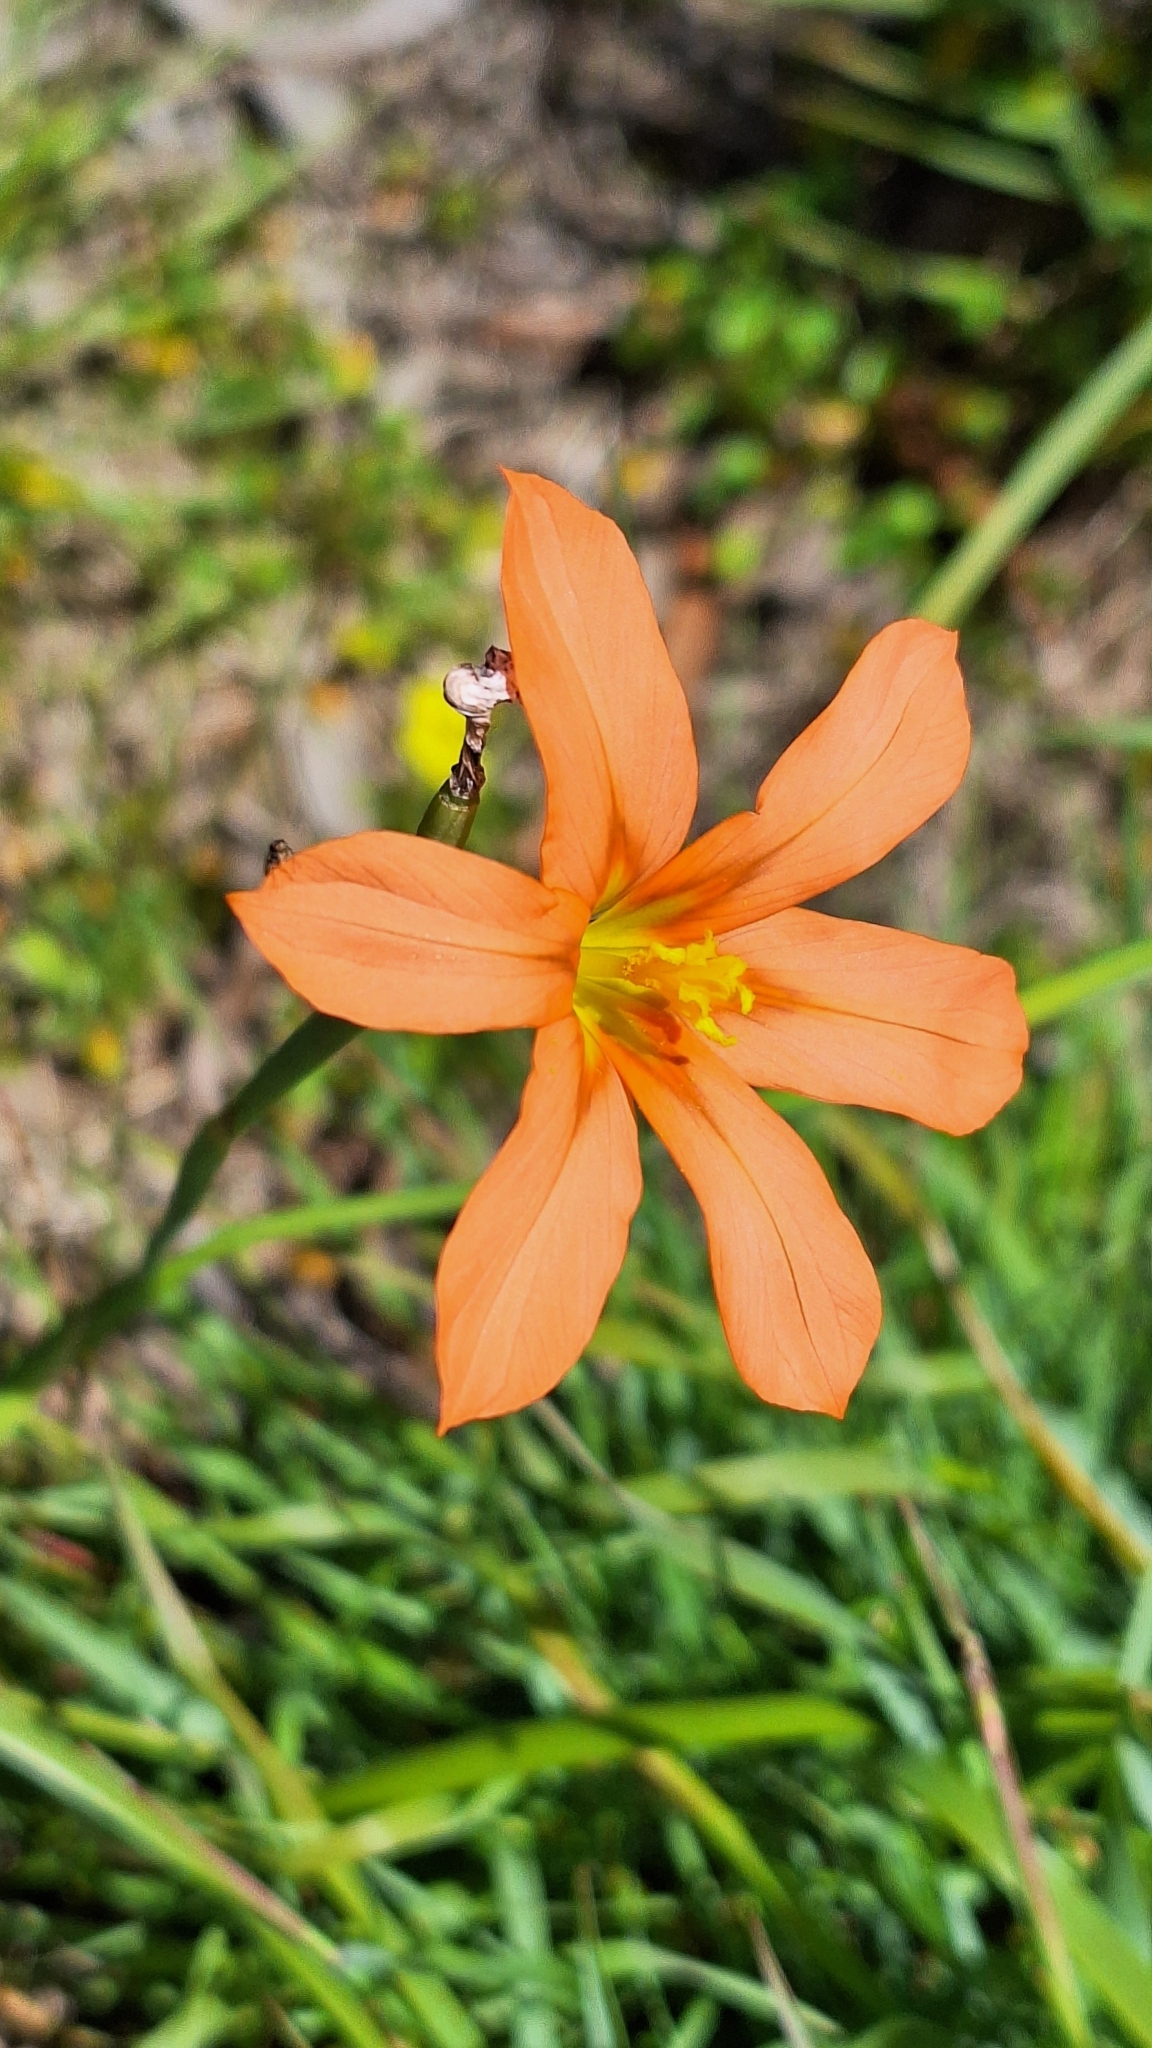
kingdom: Plantae
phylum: Tracheophyta
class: Liliopsida
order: Asparagales
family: Iridaceae
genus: Moraea
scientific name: Moraea flaccida
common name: One-leaf cape-tulip
